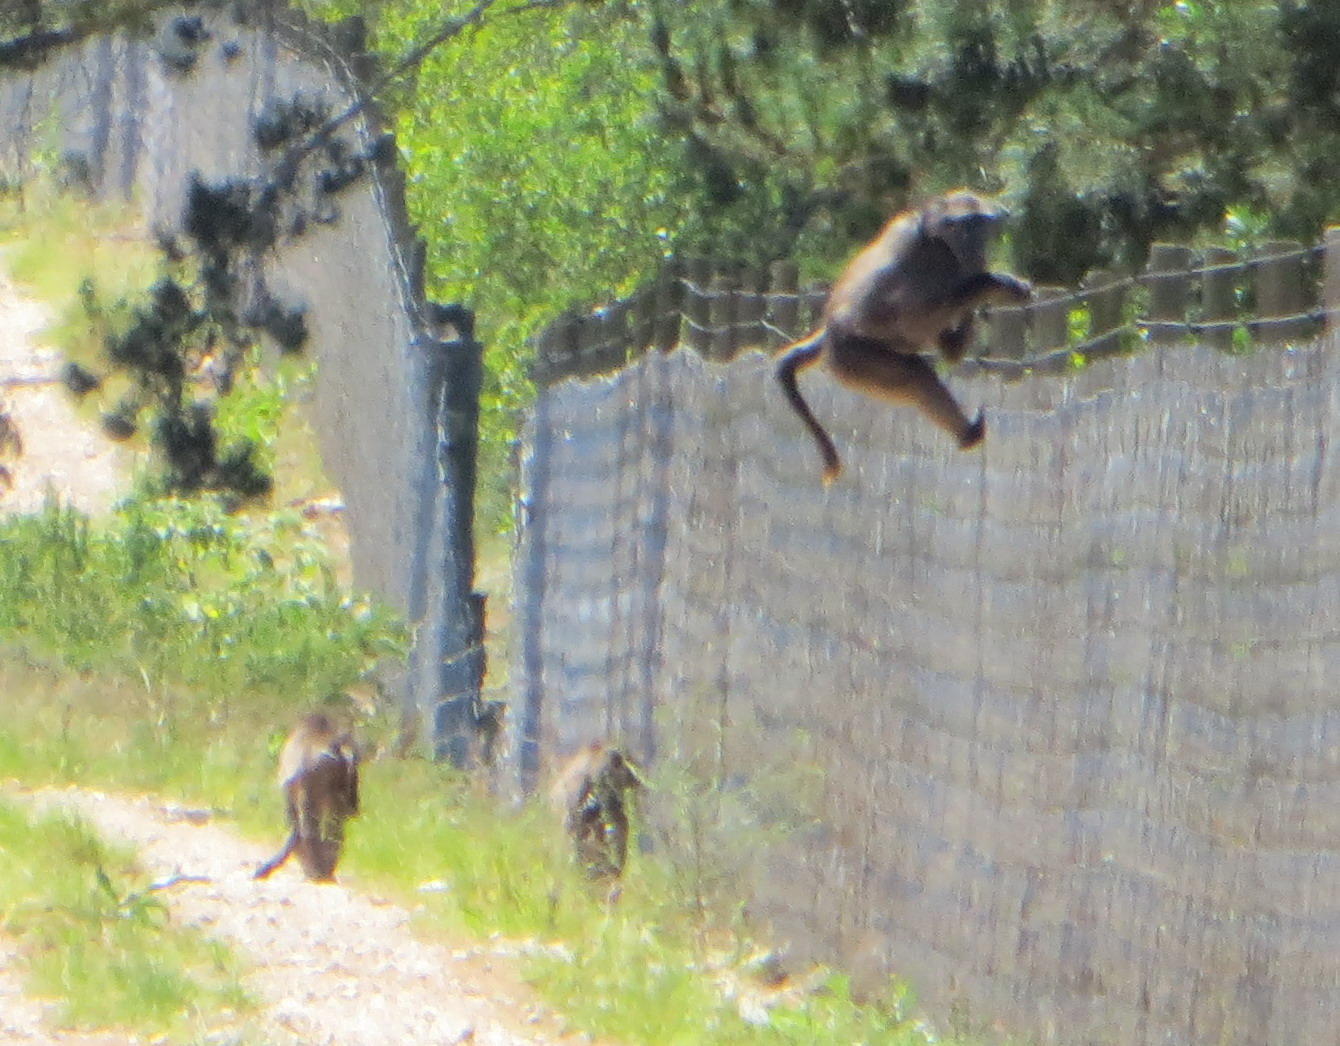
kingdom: Animalia
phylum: Chordata
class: Mammalia
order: Primates
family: Cercopithecidae
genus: Papio
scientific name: Papio ursinus
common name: Chacma baboon
